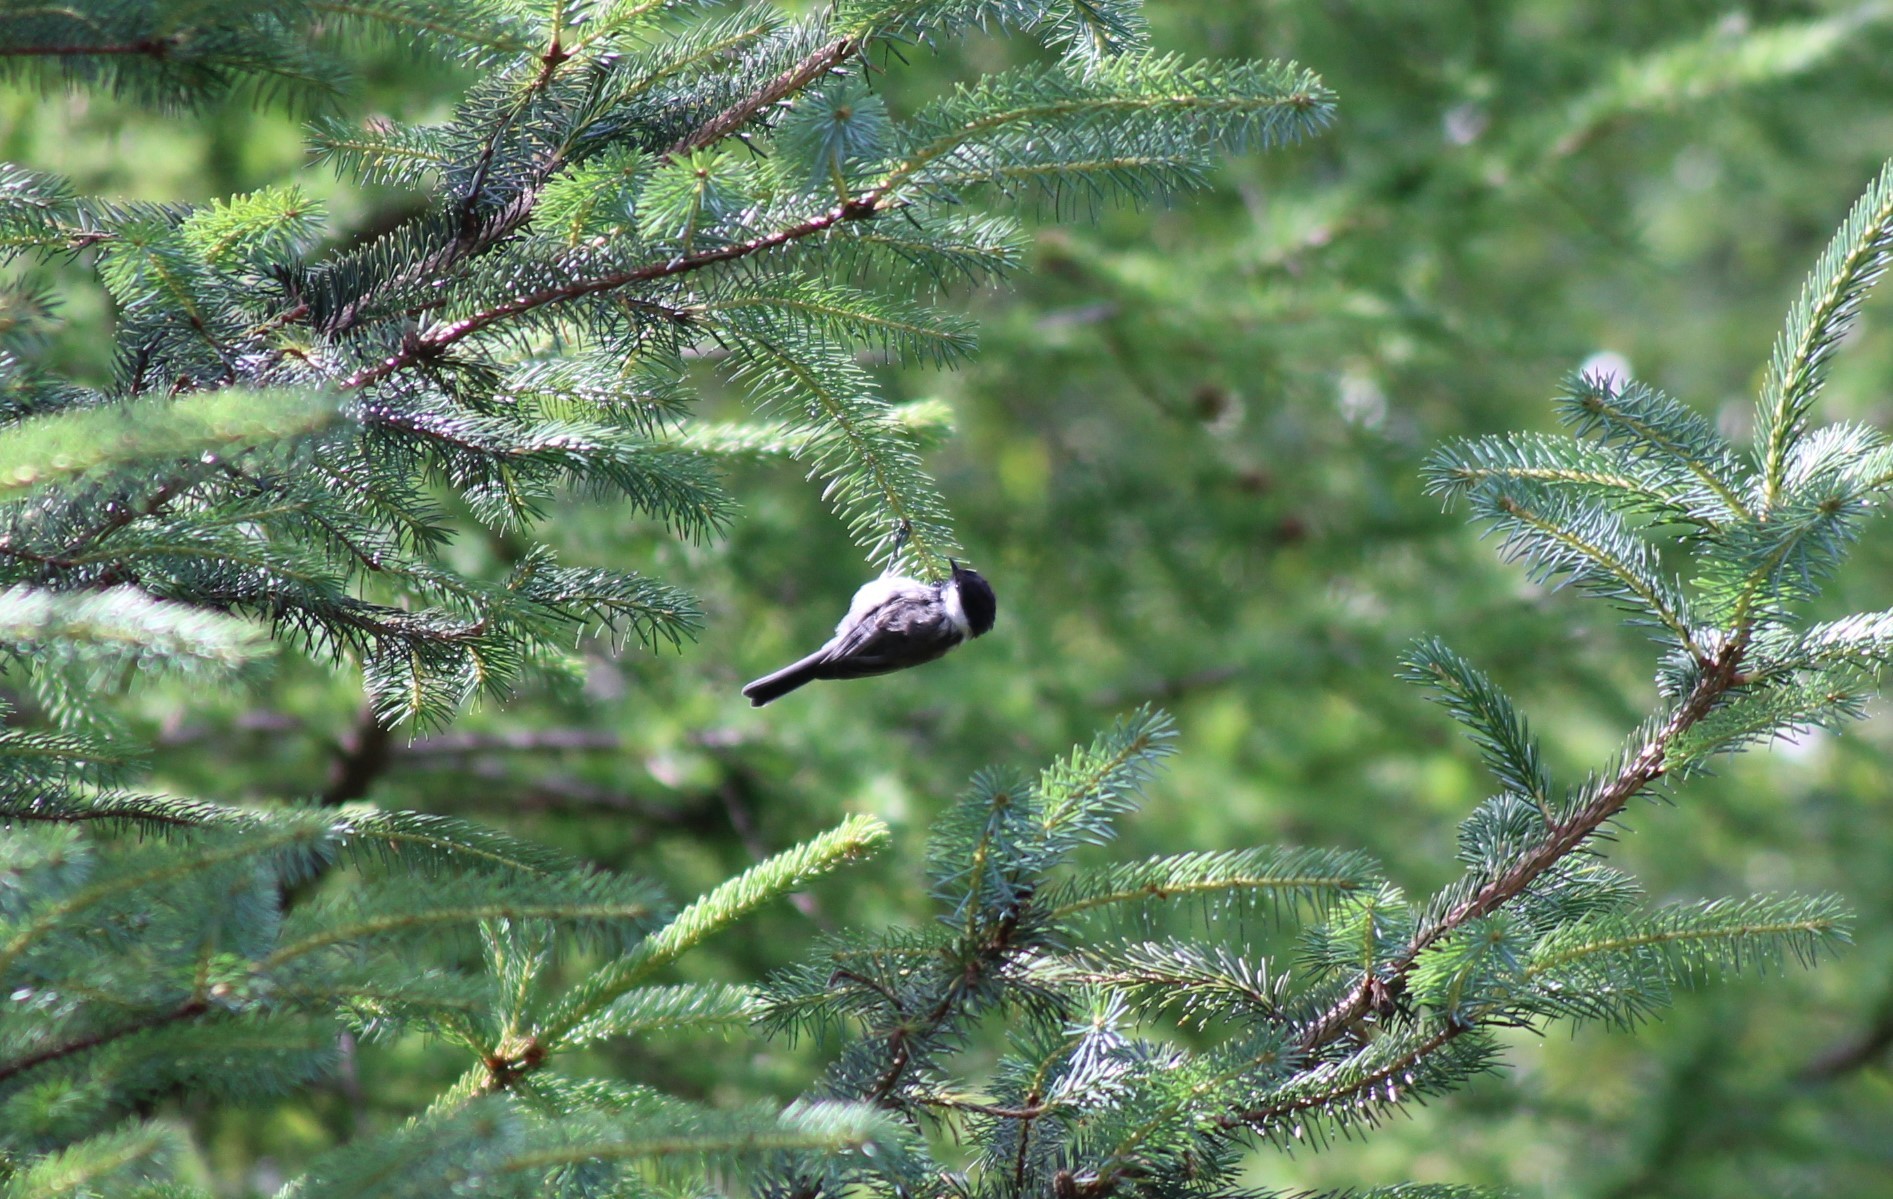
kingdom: Animalia
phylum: Chordata
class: Aves
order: Passeriformes
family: Paridae
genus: Poecile
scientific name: Poecile montanus
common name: Willow tit
